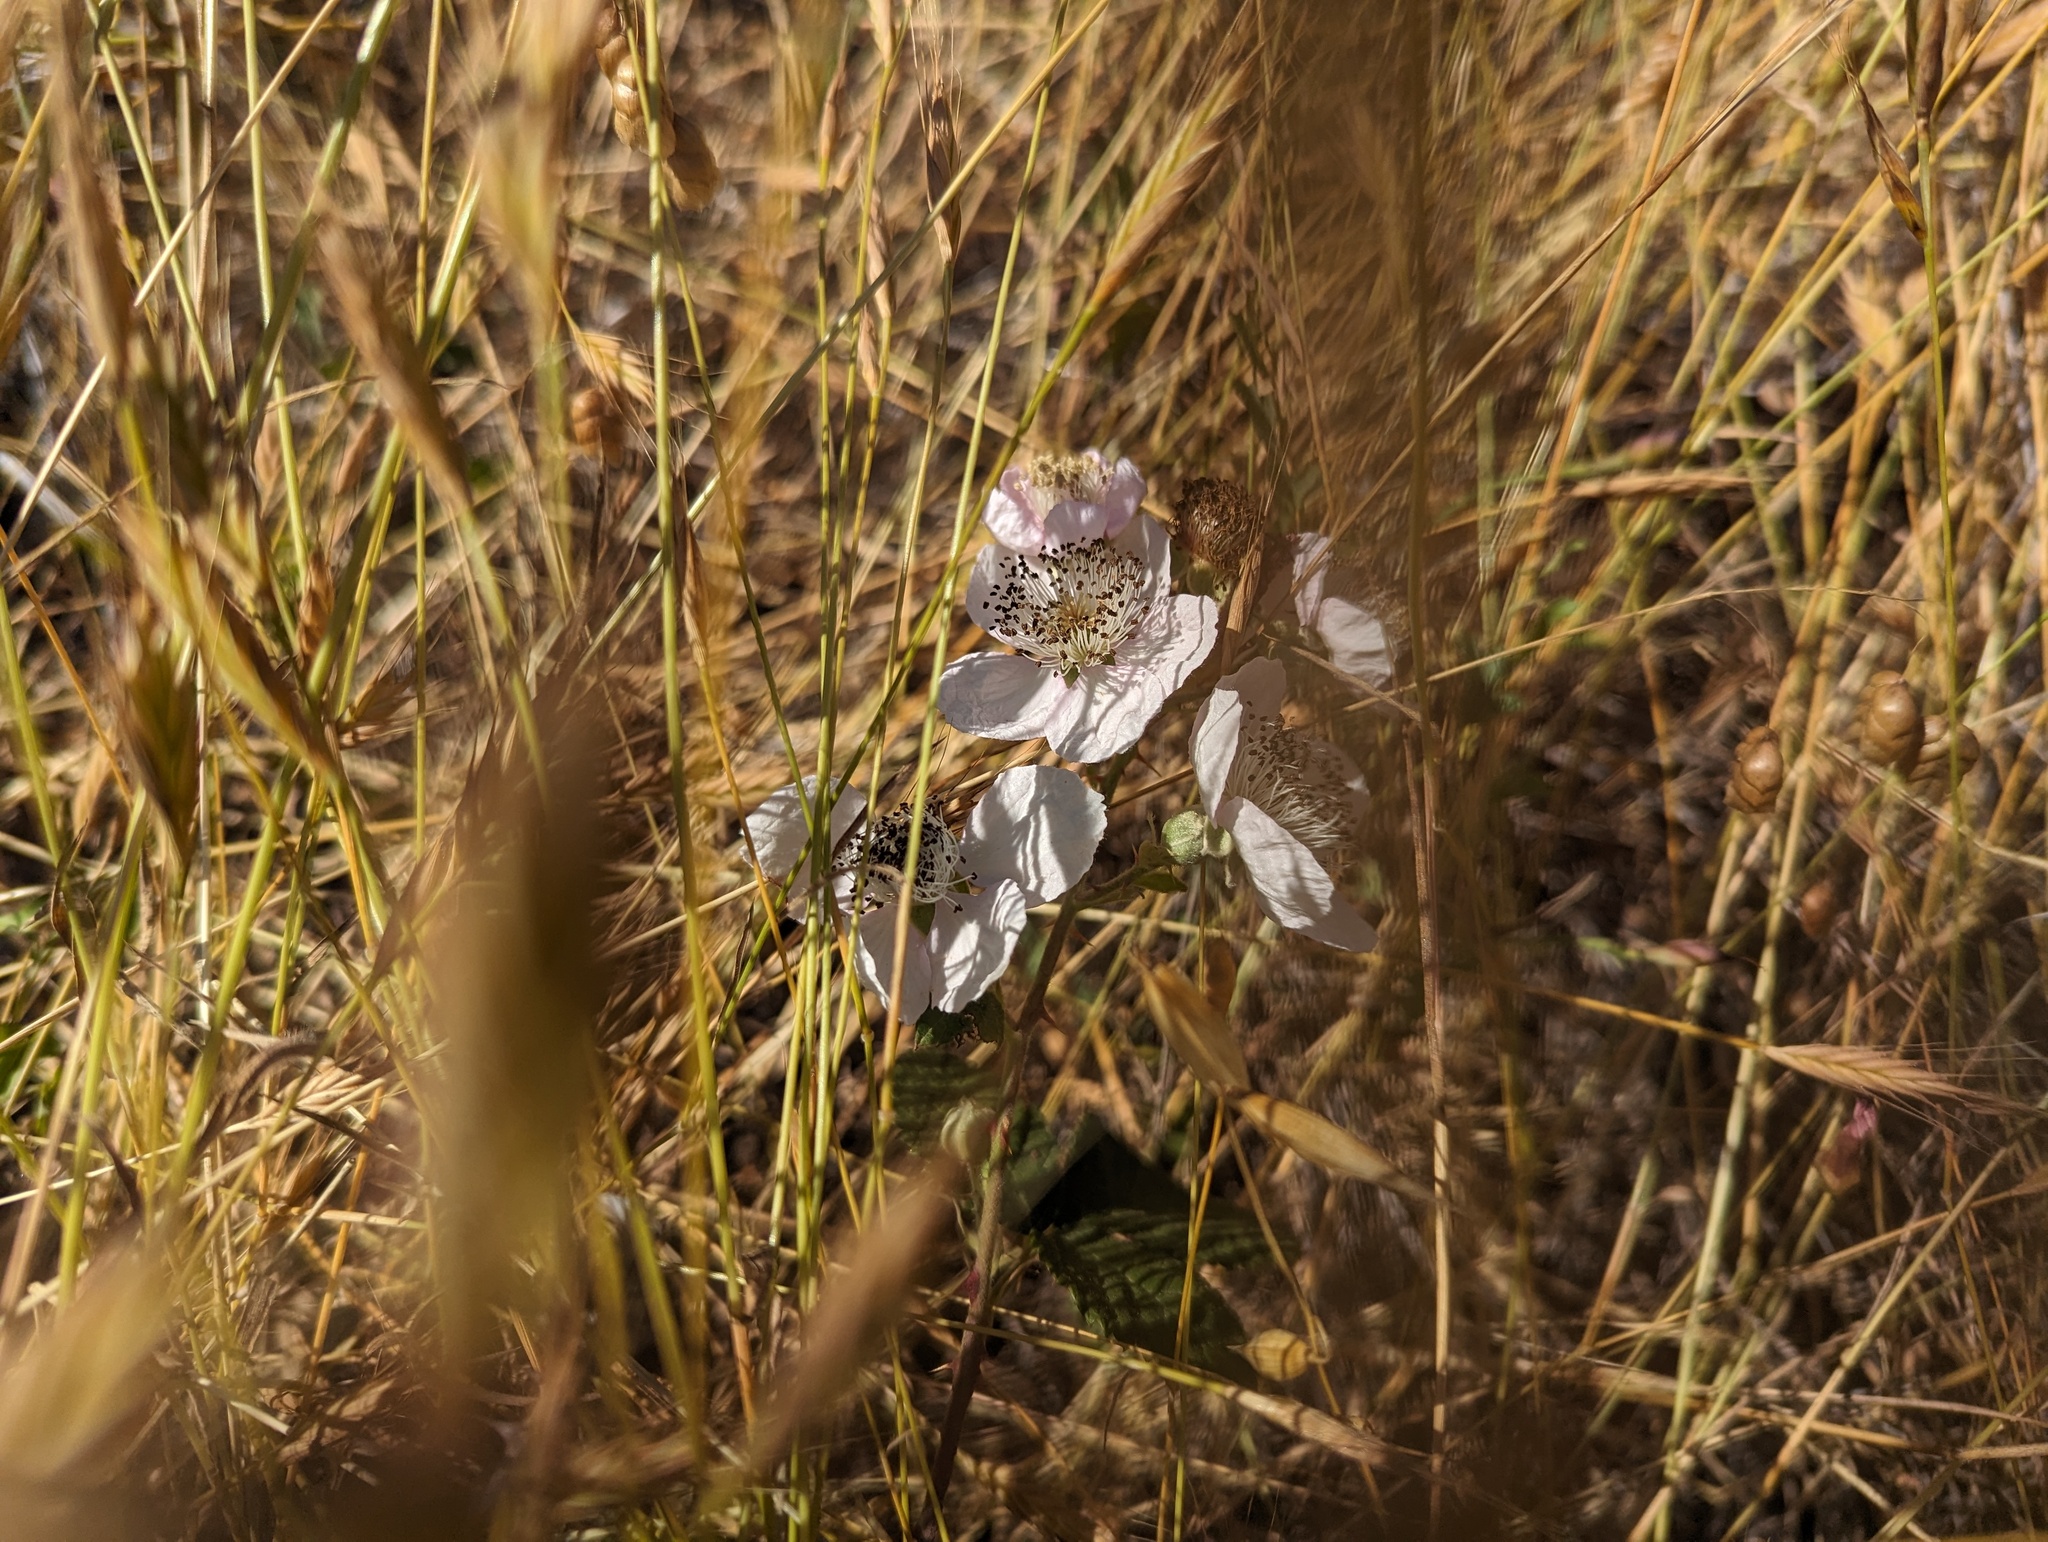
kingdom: Plantae
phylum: Tracheophyta
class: Magnoliopsida
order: Rosales
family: Rosaceae
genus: Rubus
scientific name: Rubus armeniacus
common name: Himalayan blackberry
